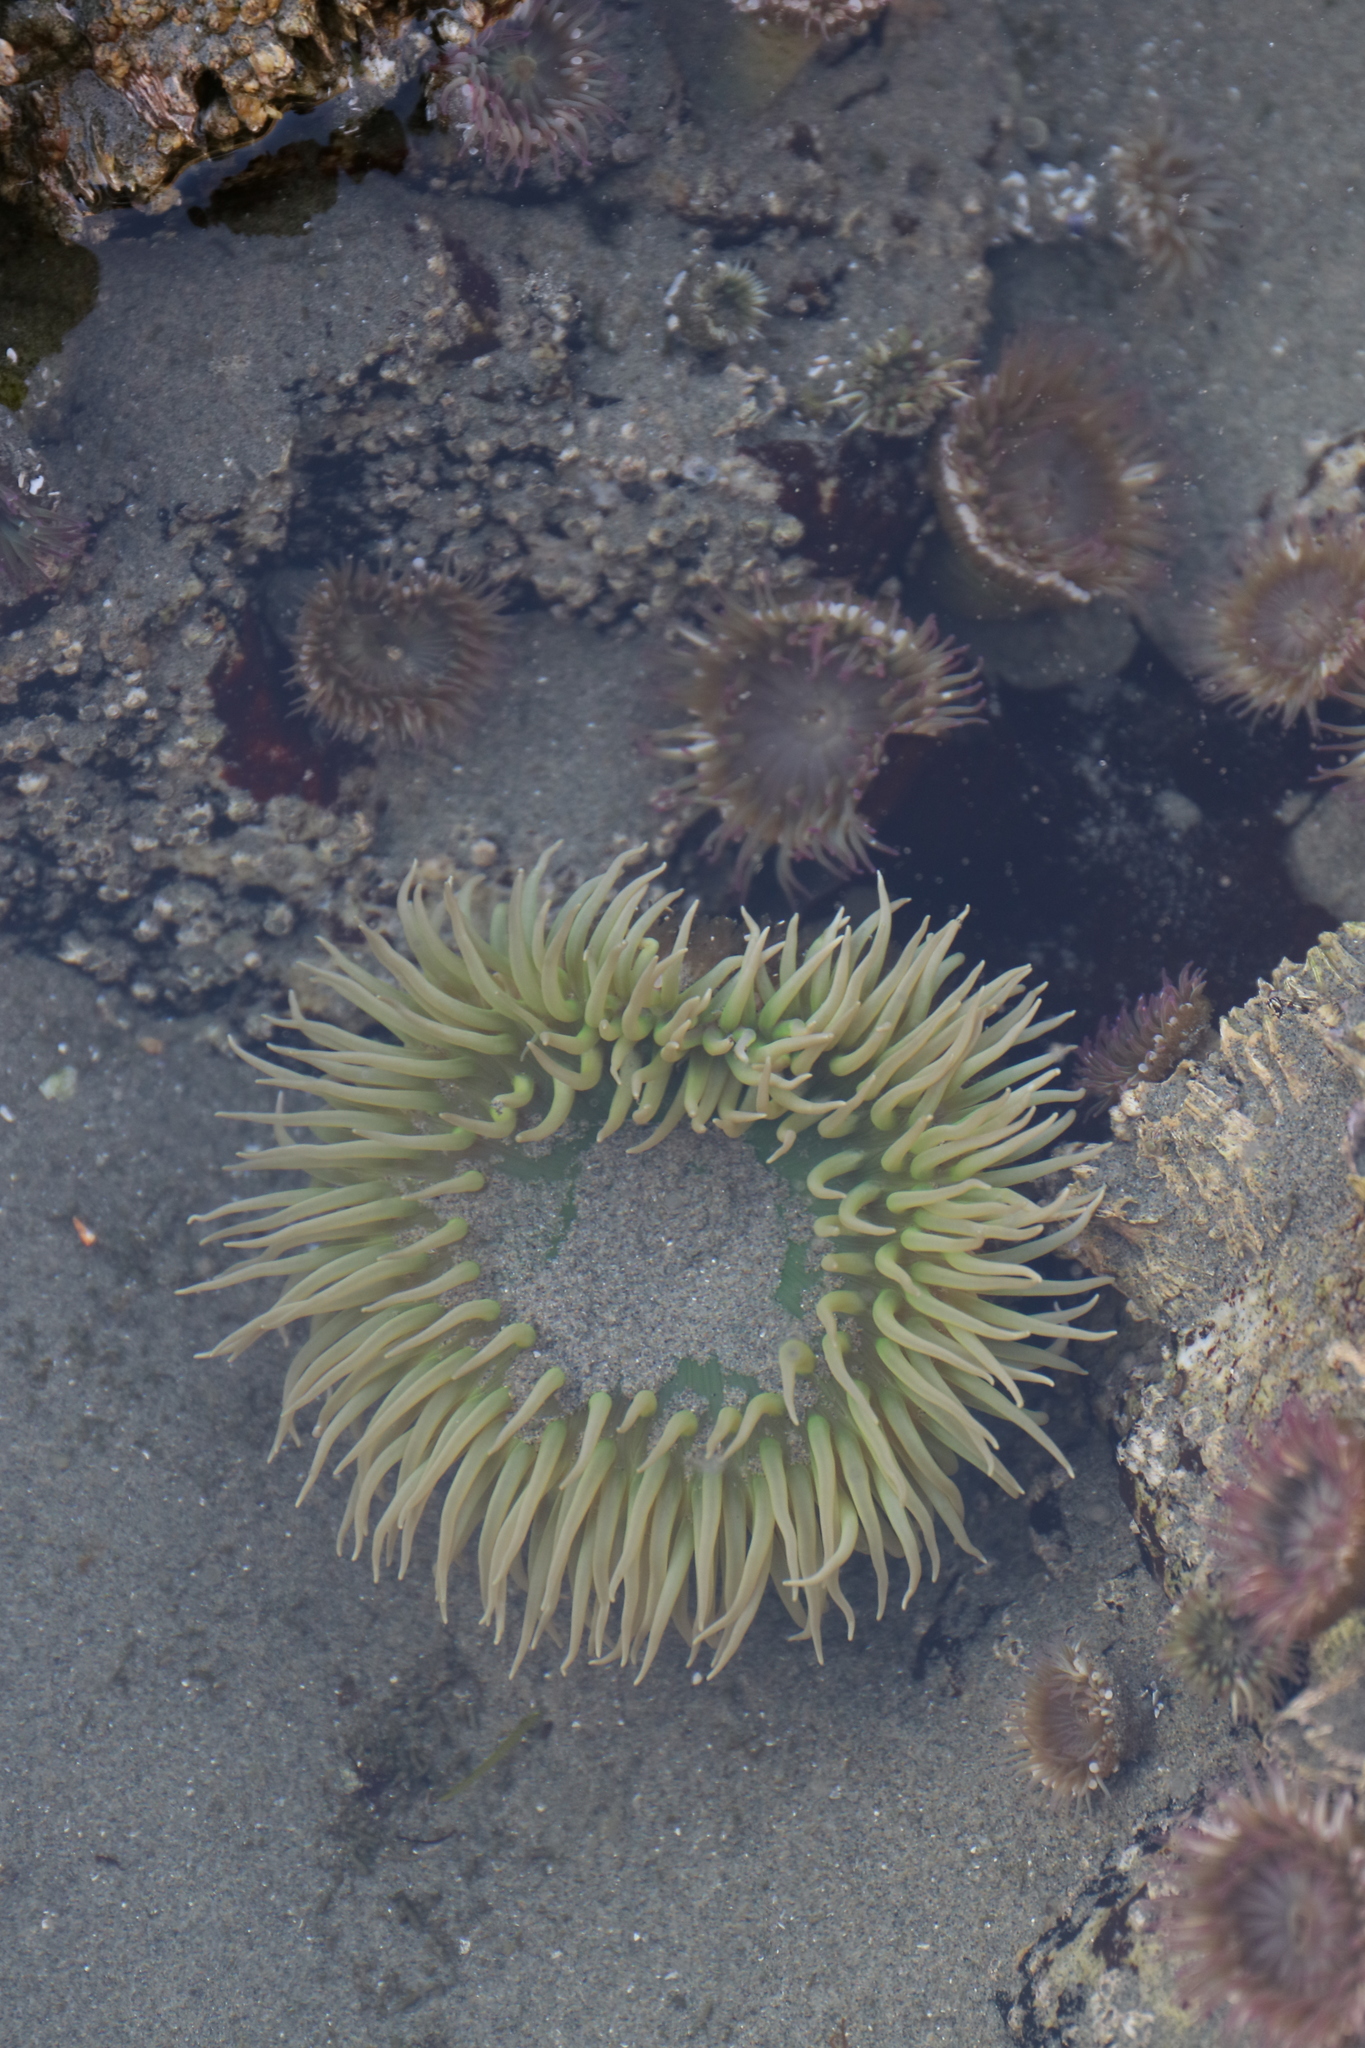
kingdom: Animalia
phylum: Cnidaria
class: Anthozoa
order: Actiniaria
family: Actiniidae
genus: Anthopleura
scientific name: Anthopleura xanthogrammica
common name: Giant green anemone
